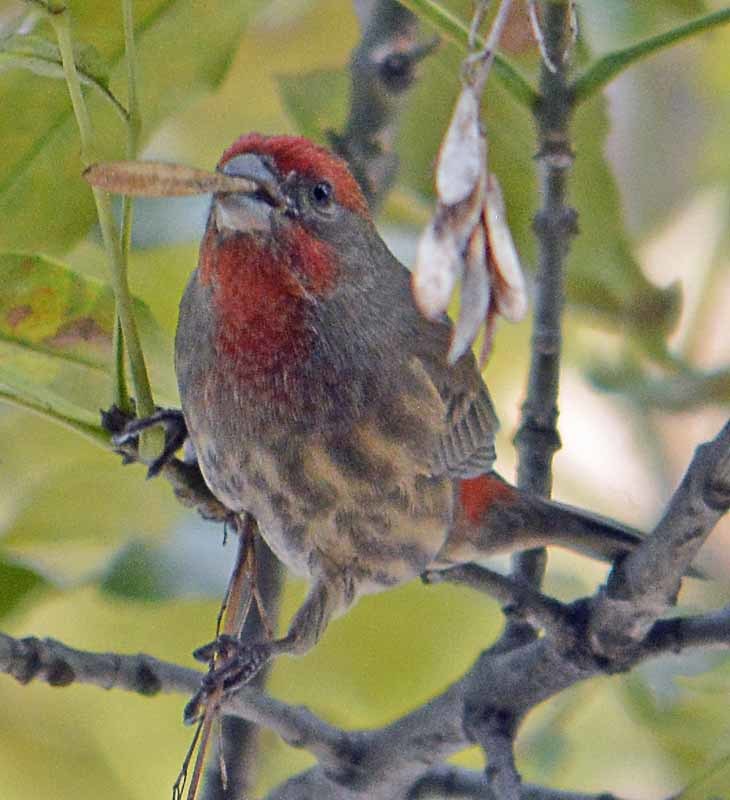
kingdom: Animalia
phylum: Chordata
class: Aves
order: Passeriformes
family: Fringillidae
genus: Haemorhous
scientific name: Haemorhous mexicanus
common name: House finch
